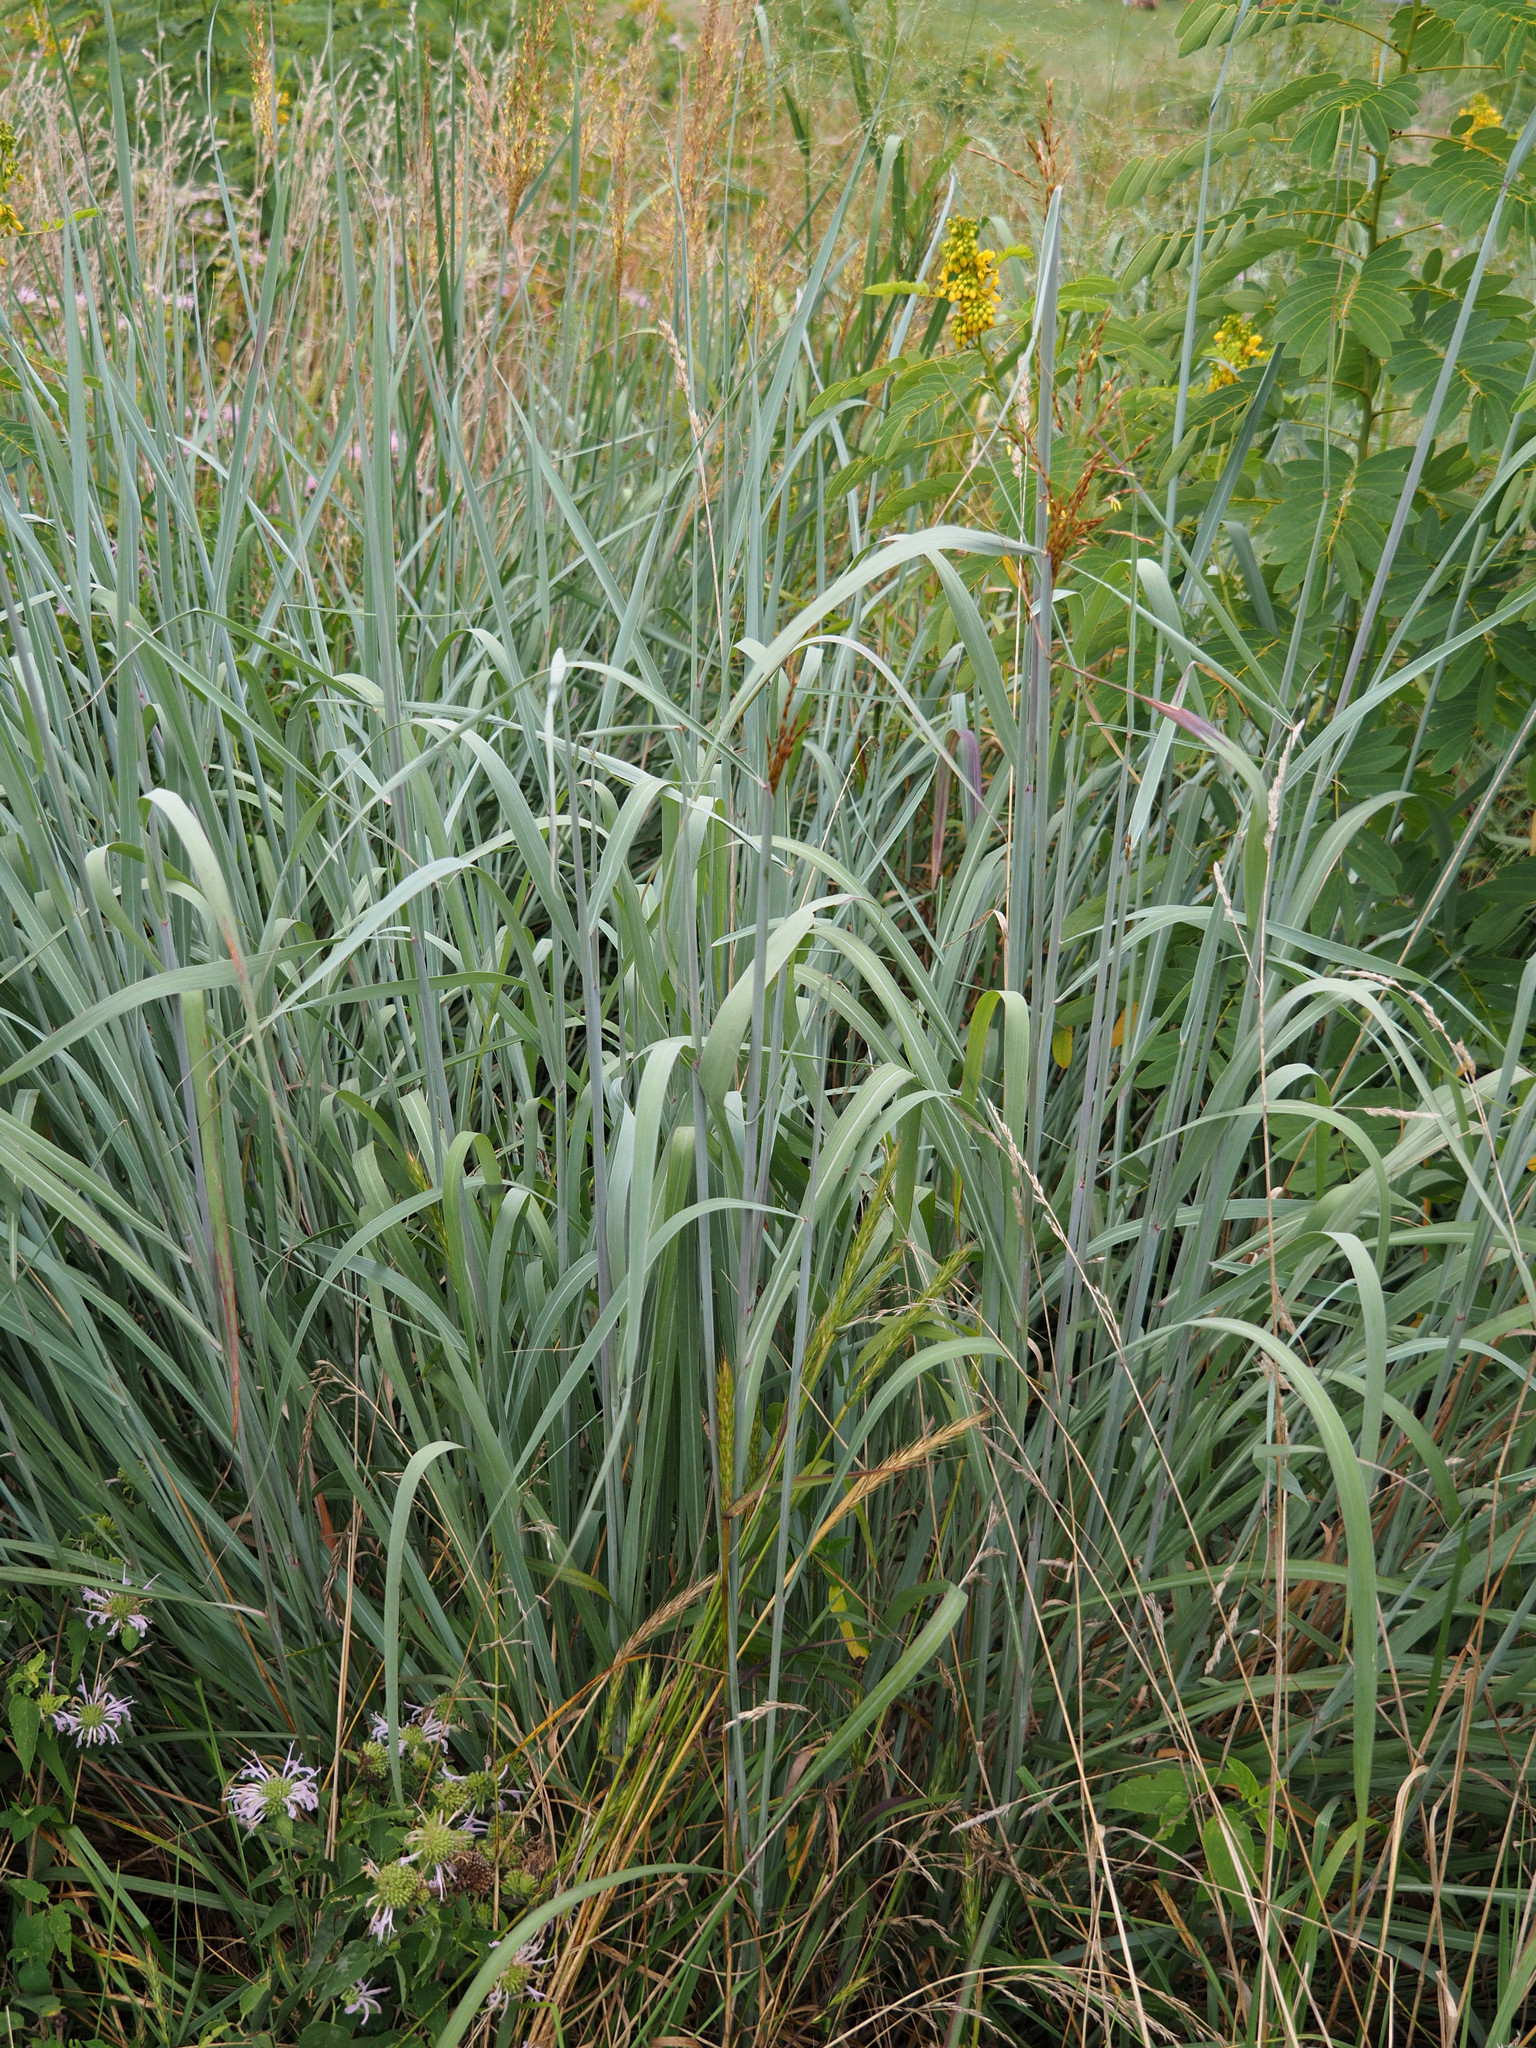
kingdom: Plantae
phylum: Tracheophyta
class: Liliopsida
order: Poales
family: Poaceae
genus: Sorghastrum
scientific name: Sorghastrum nutans
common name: Indian grass
